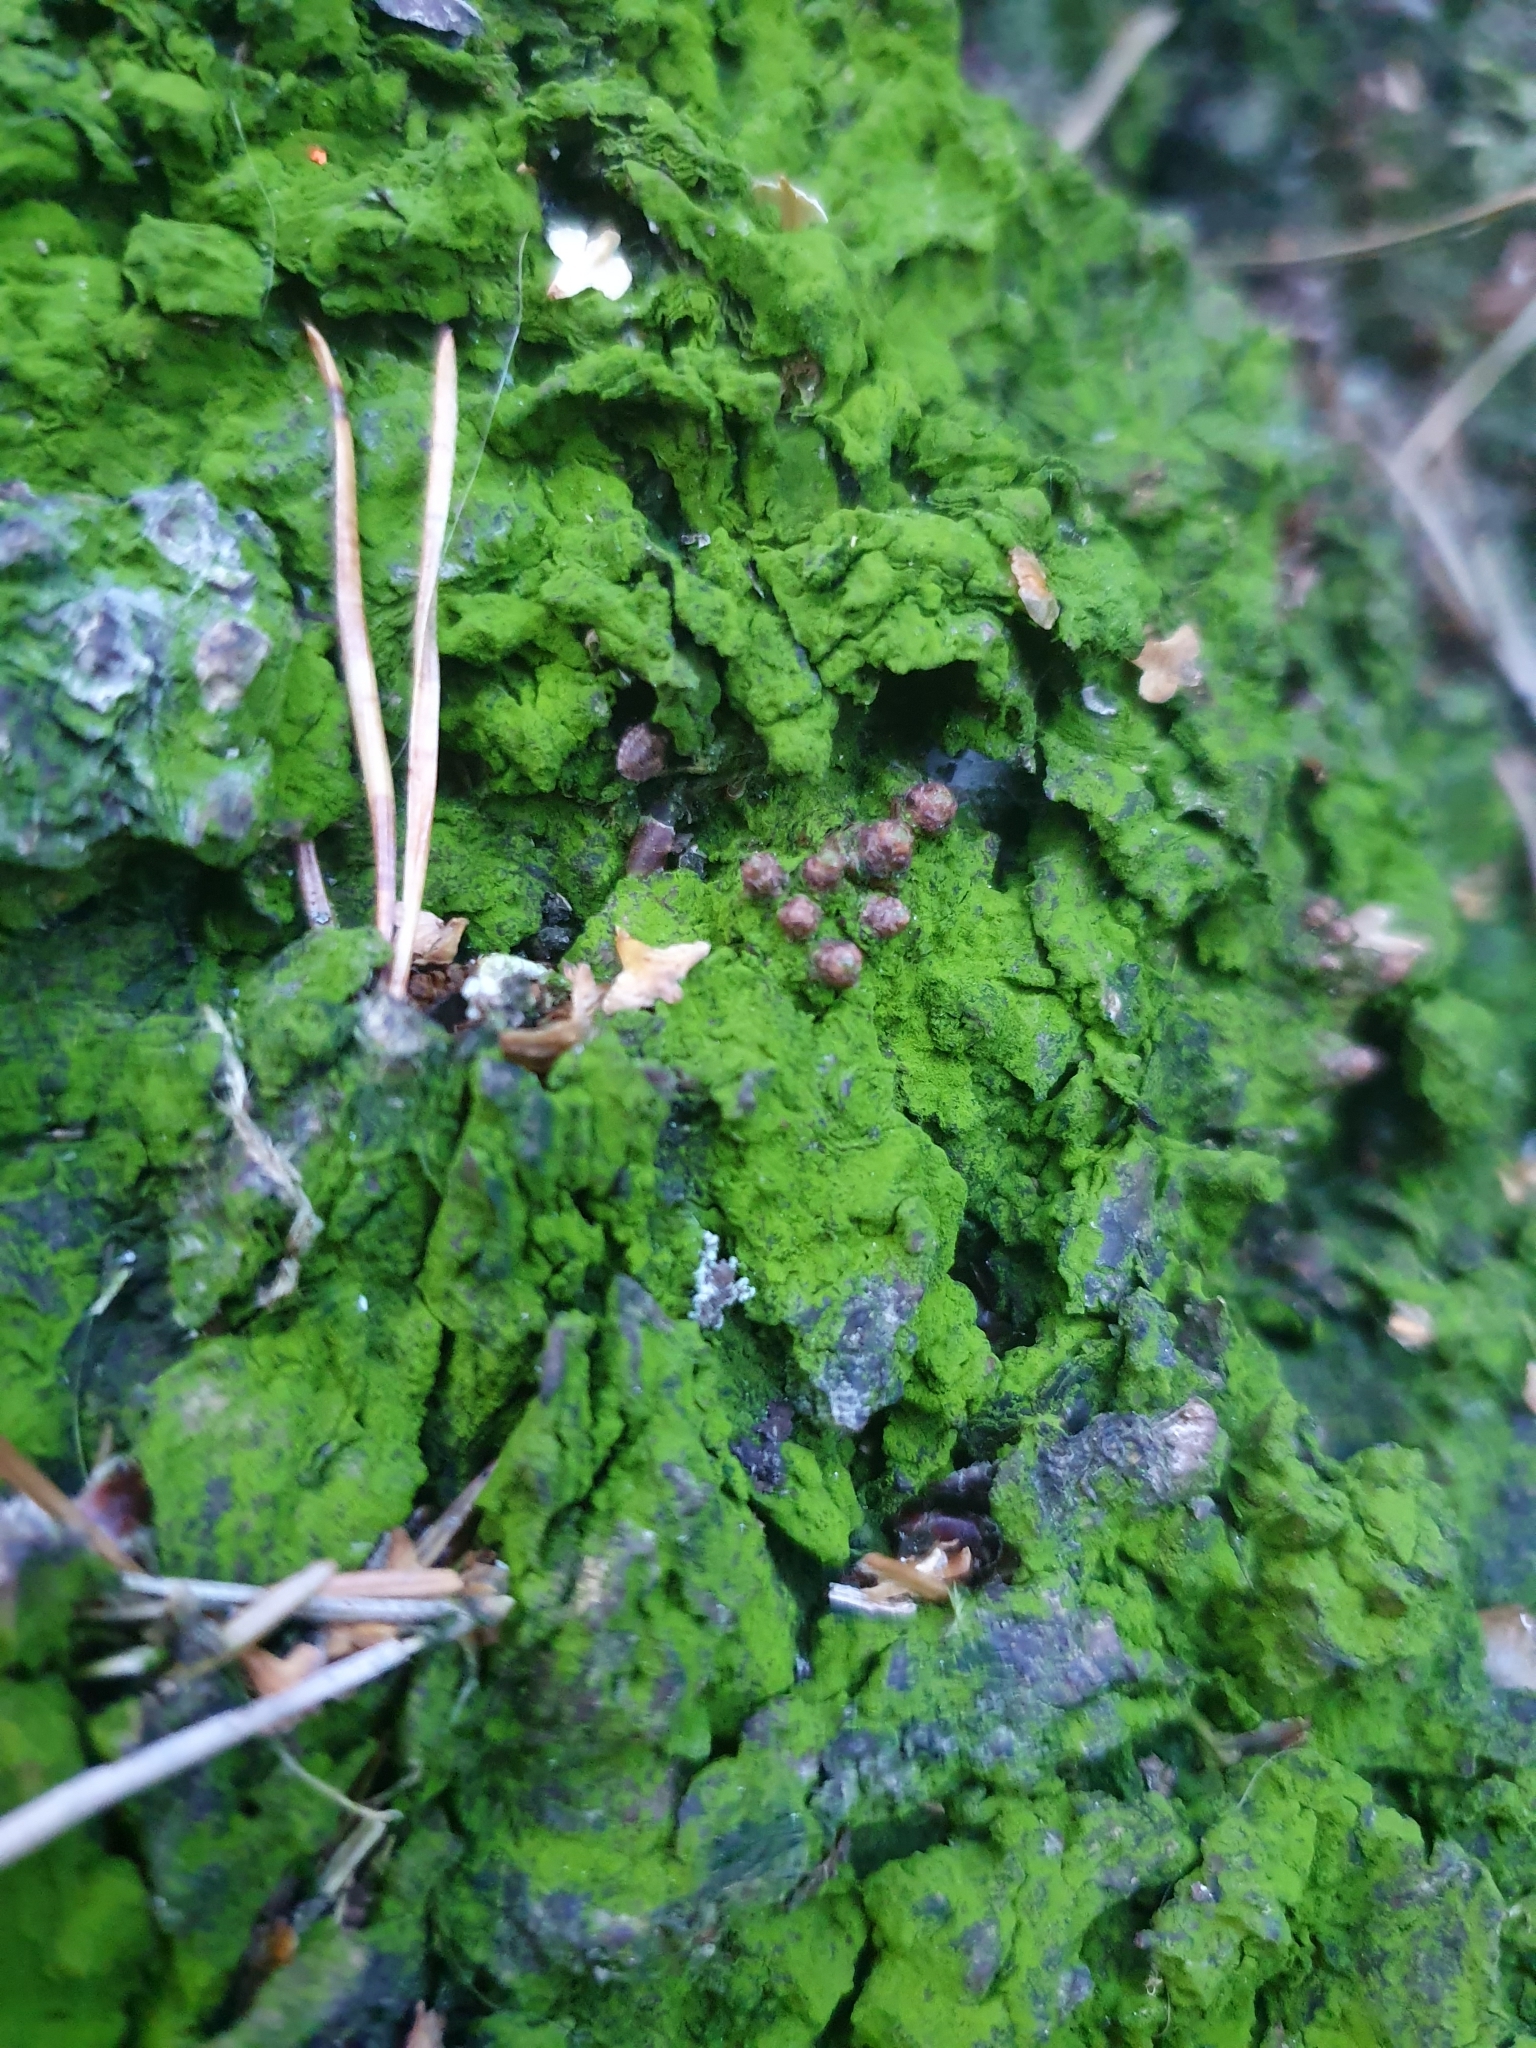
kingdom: Plantae
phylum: Chlorophyta
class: Trebouxiophyceae
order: Prasiolales
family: Prasiolaceae
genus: Desmococcus
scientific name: Desmococcus olivaceus
